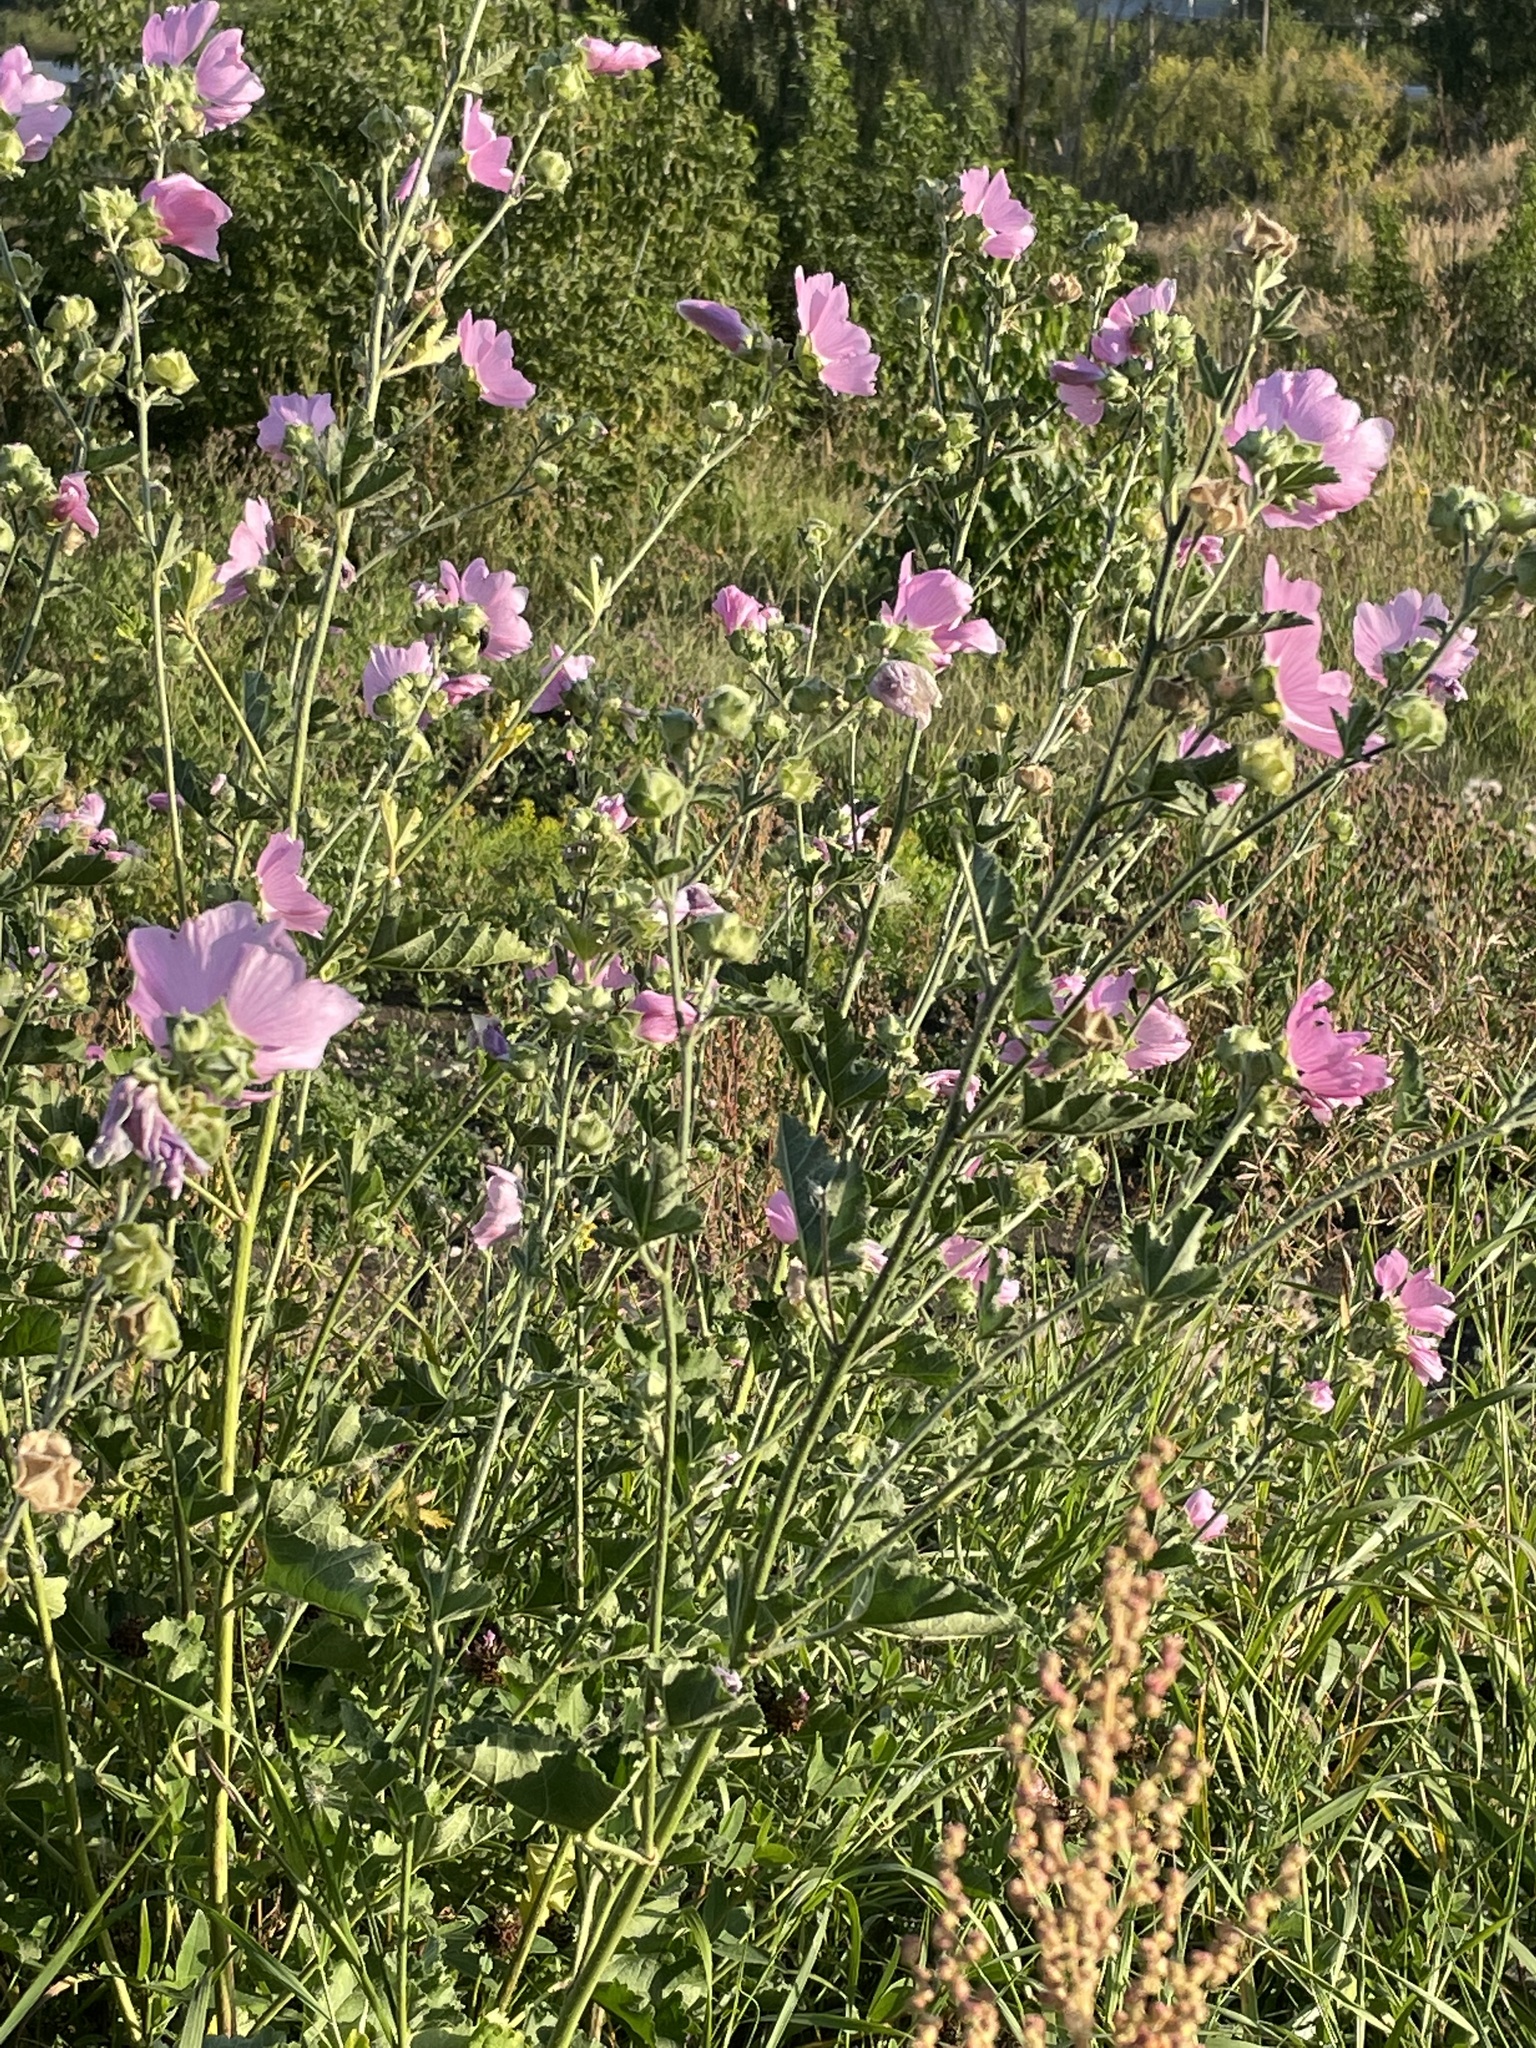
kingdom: Plantae
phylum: Tracheophyta
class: Magnoliopsida
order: Malvales
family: Malvaceae
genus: Malva
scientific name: Malva thuringiaca
